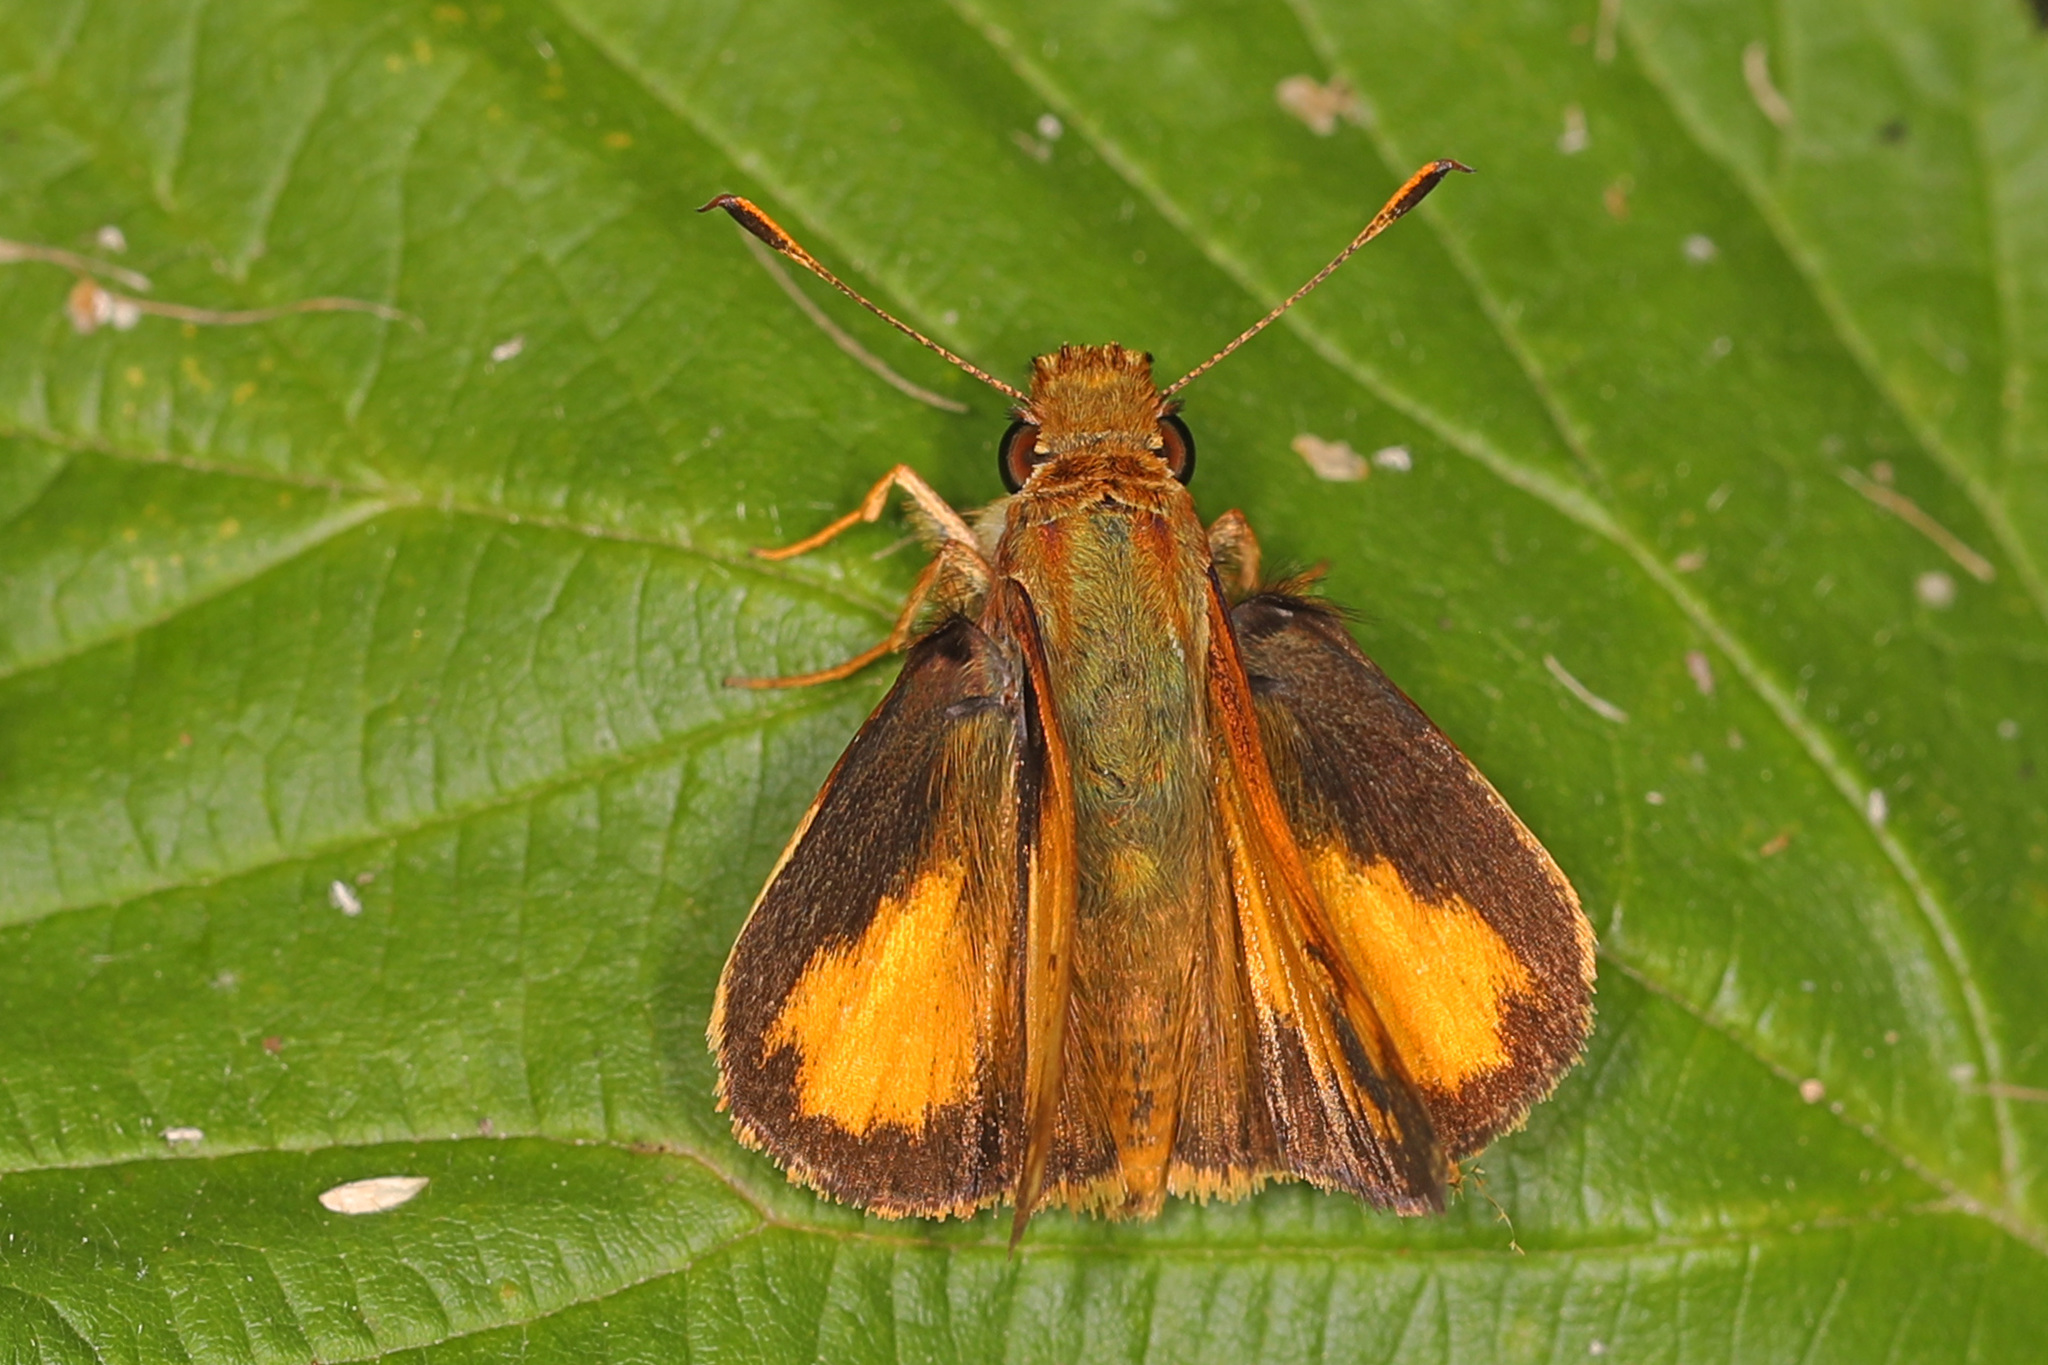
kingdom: Animalia
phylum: Arthropoda
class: Insecta
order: Lepidoptera
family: Hesperiidae
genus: Lon
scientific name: Lon zabulon
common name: Zabulon skipper
